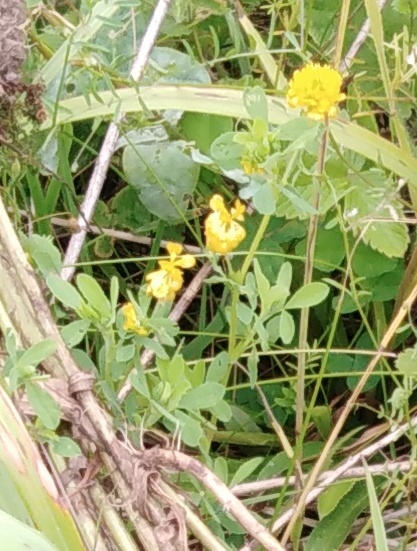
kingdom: Plantae
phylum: Tracheophyta
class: Magnoliopsida
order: Fabales
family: Fabaceae
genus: Trifolium
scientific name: Trifolium aureum
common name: Golden clover
